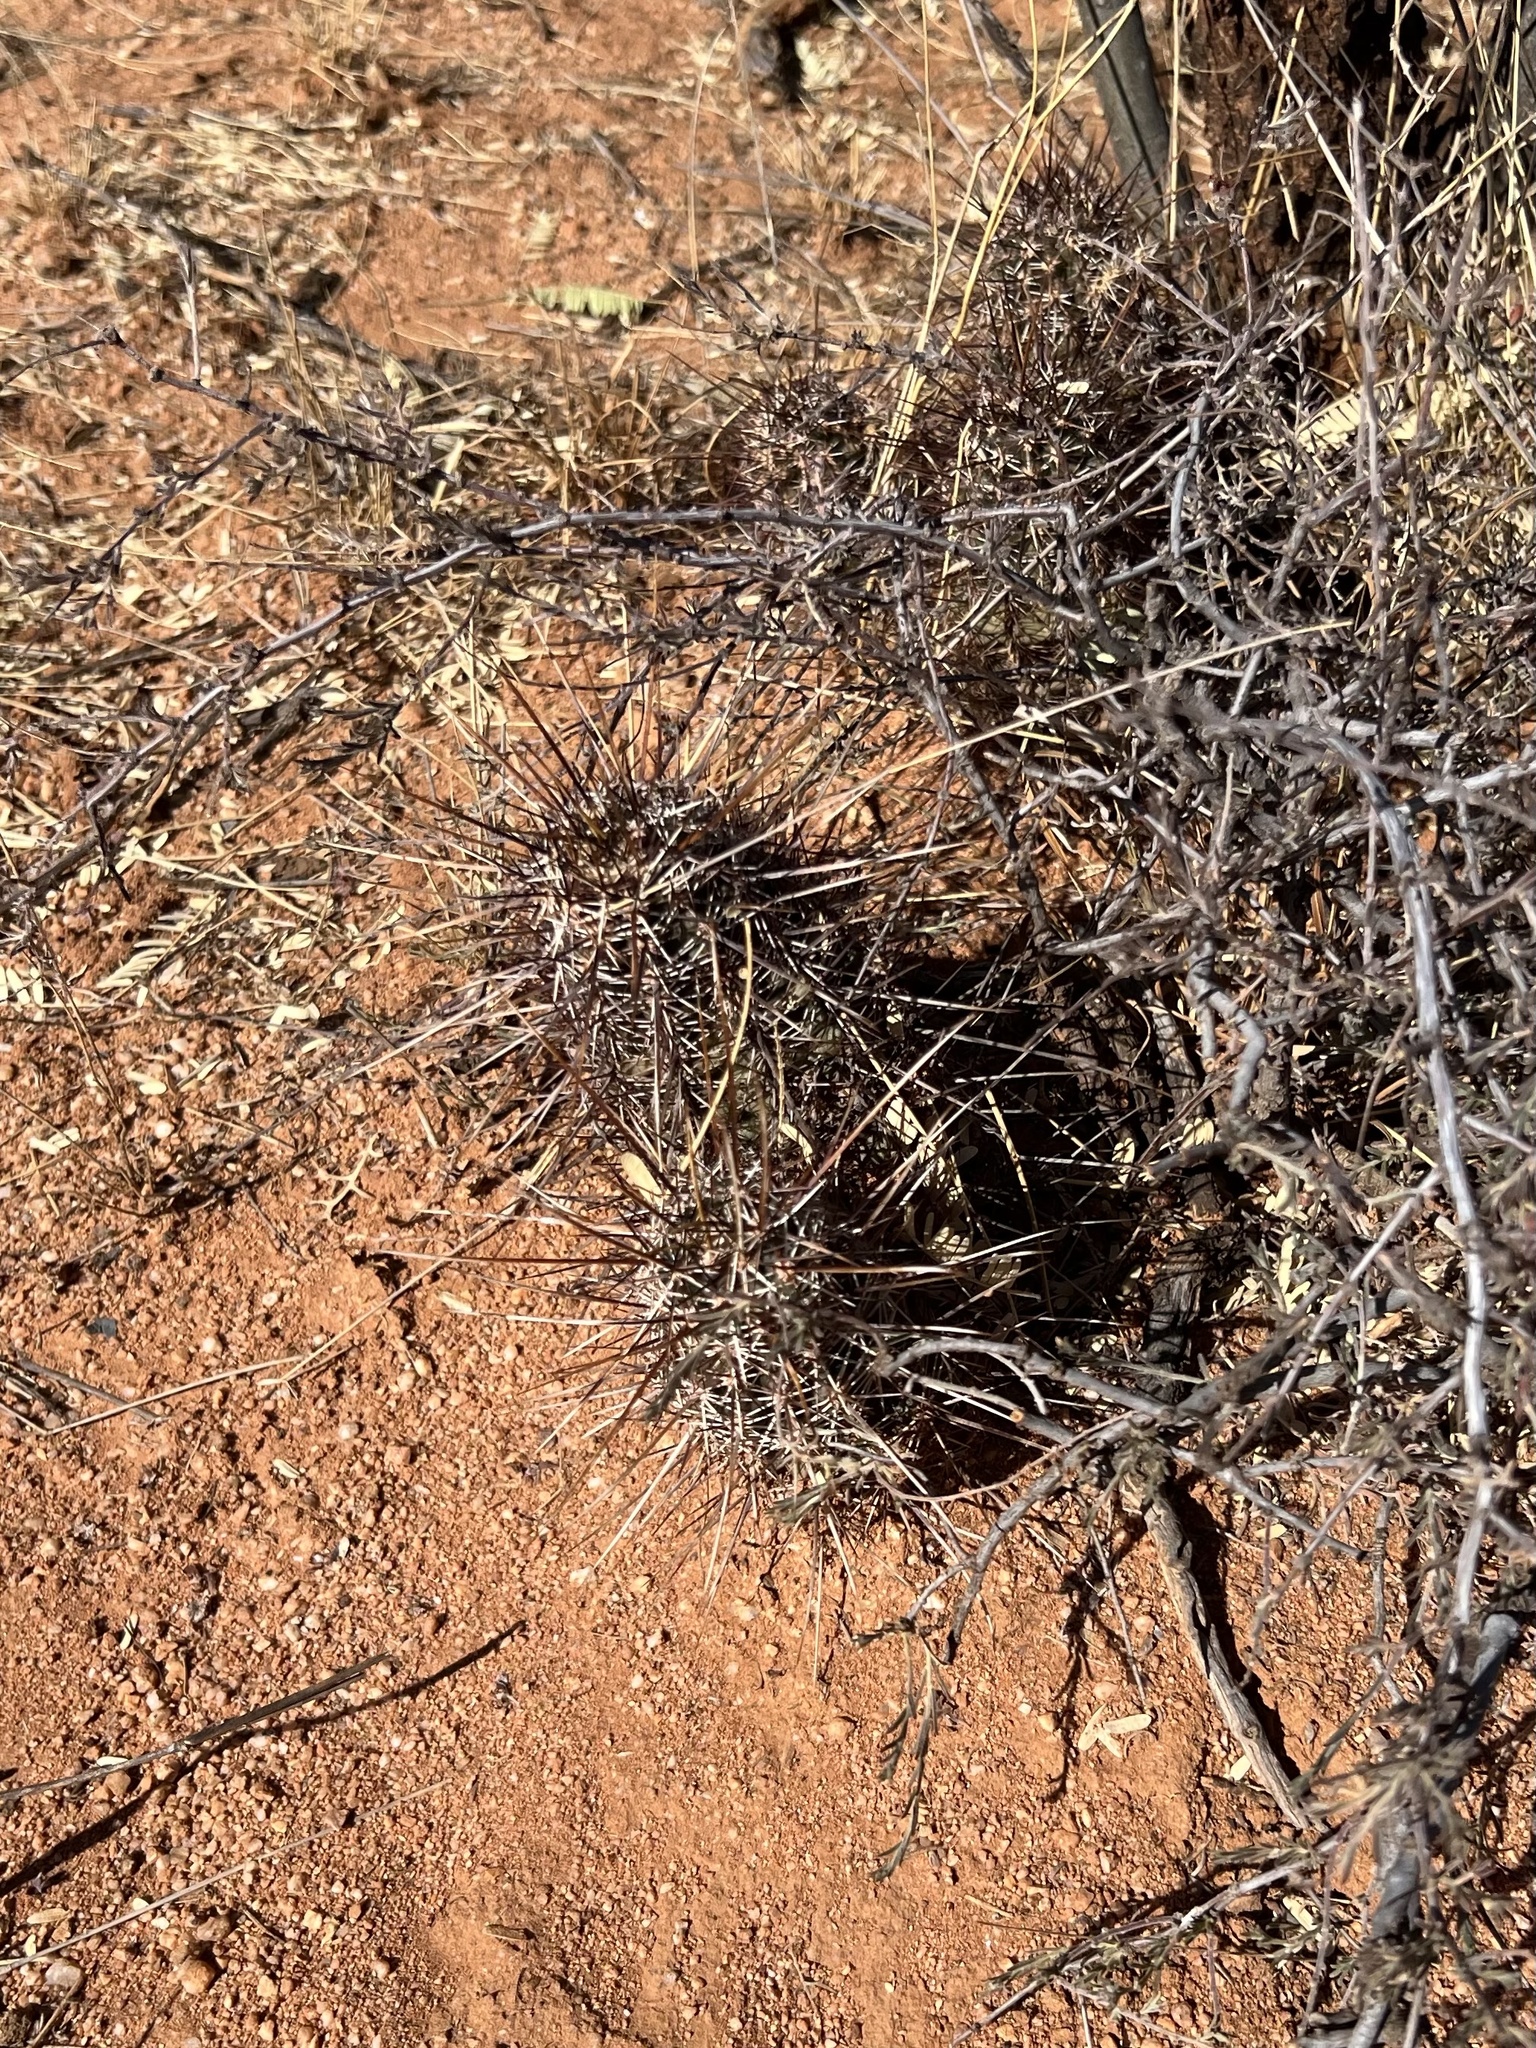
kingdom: Plantae
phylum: Tracheophyta
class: Magnoliopsida
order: Caryophyllales
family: Cactaceae
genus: Echinocereus
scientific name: Echinocereus fasciculatus
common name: Bundle hedgehog
